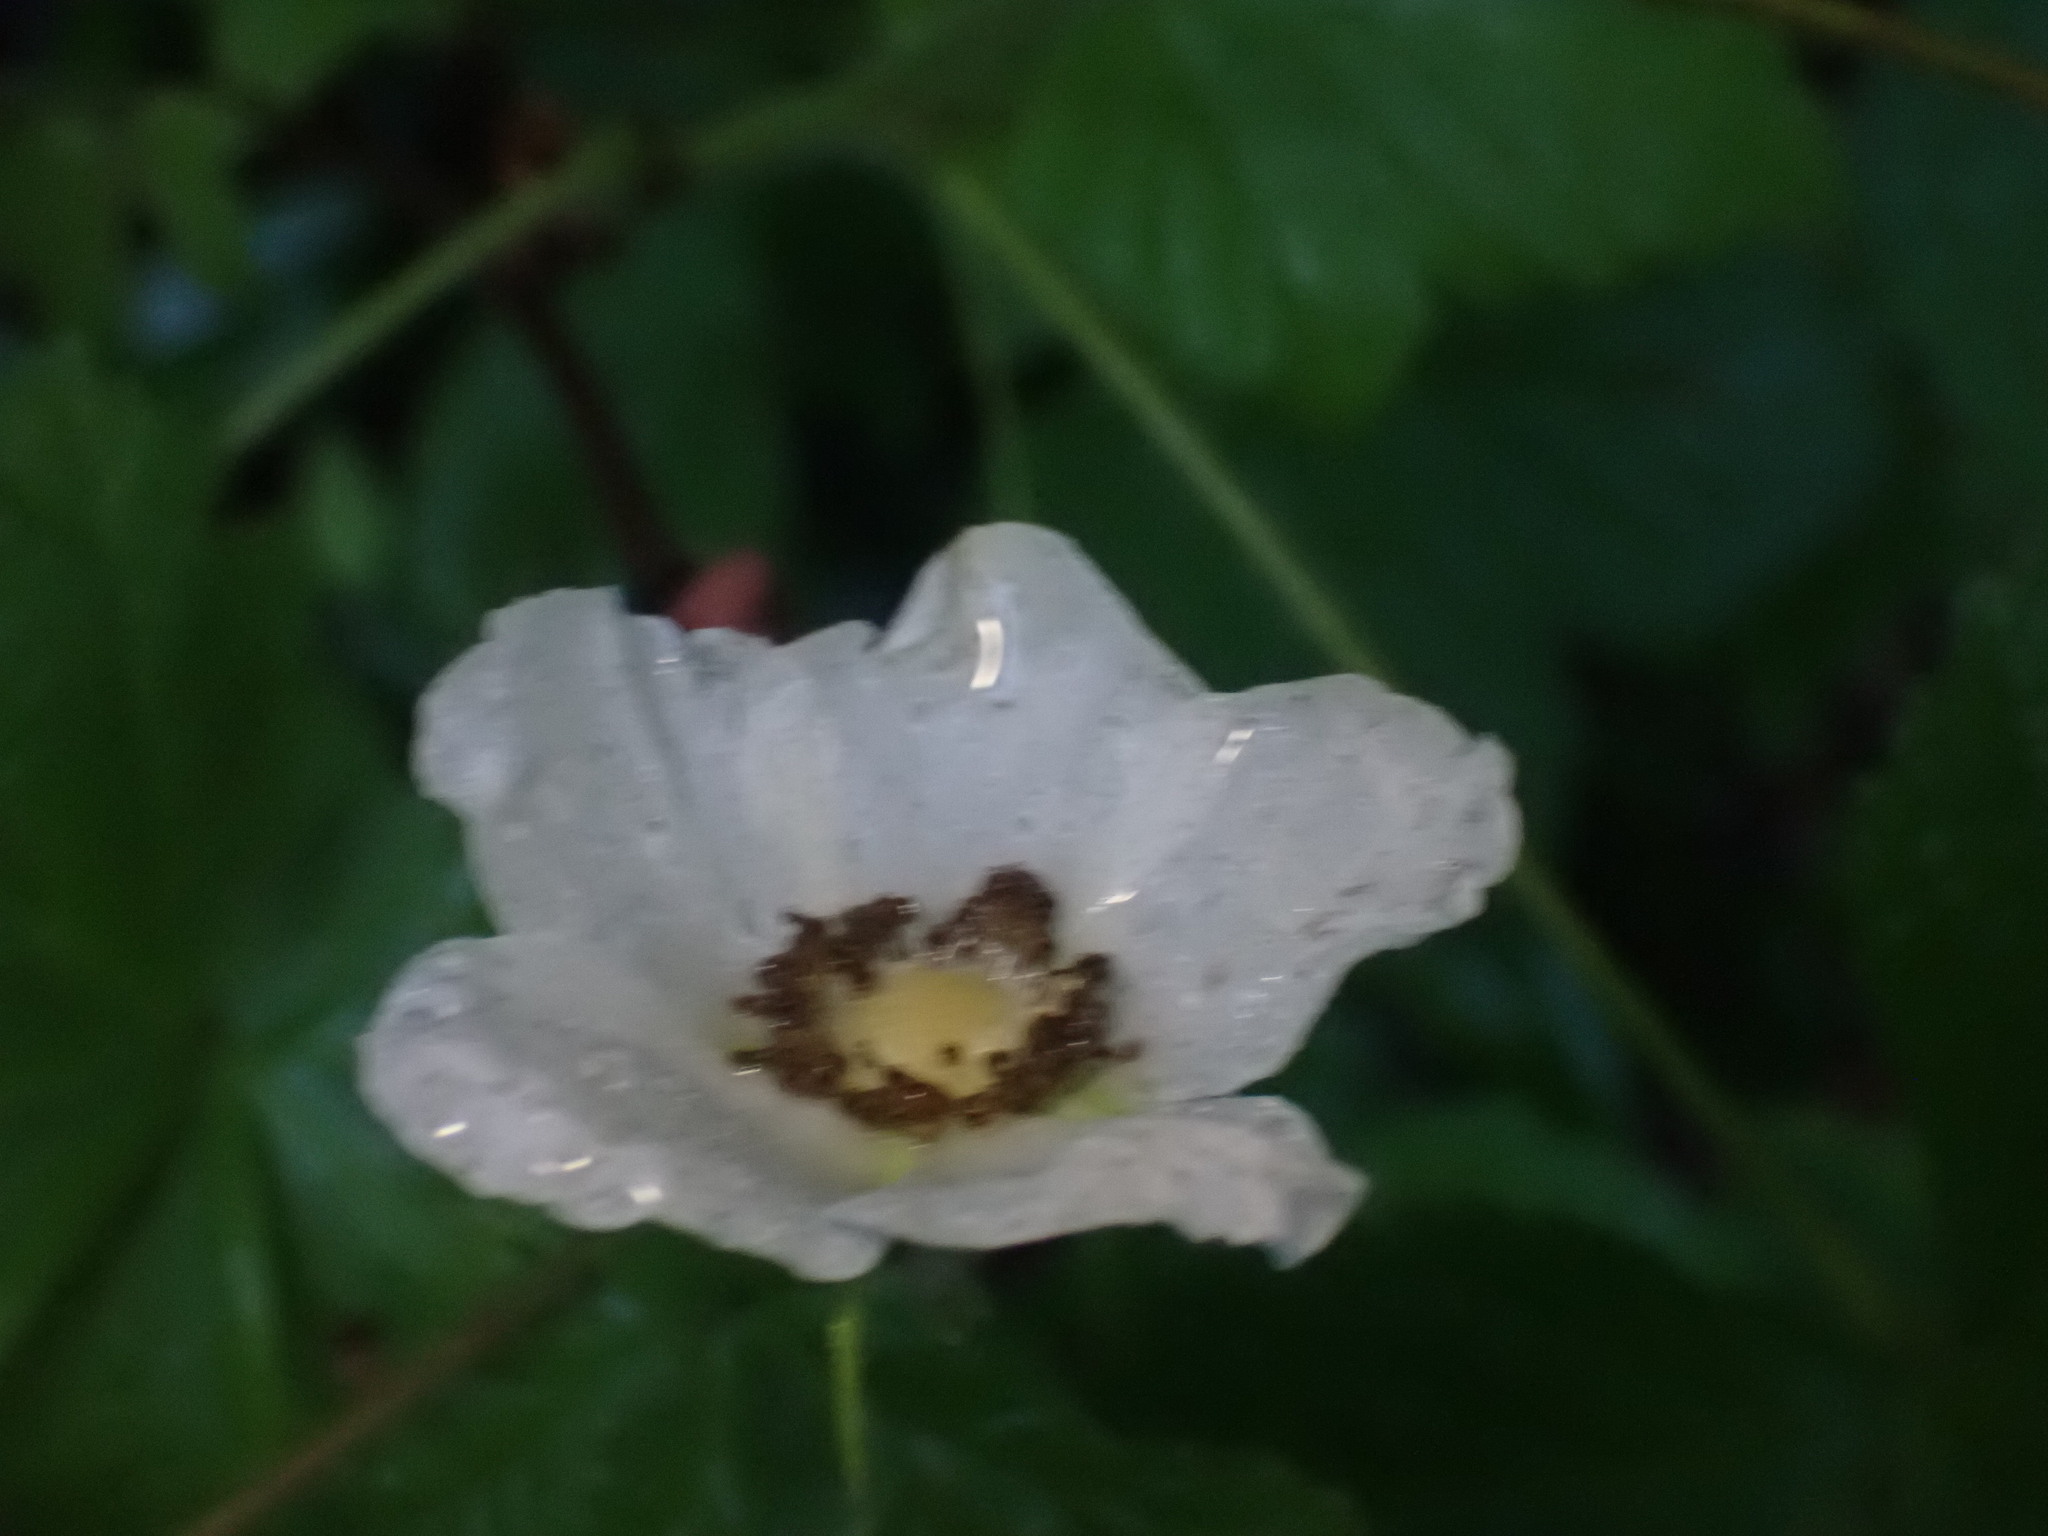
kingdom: Plantae
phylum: Tracheophyta
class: Magnoliopsida
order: Rosales
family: Rosaceae
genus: Rubus
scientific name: Rubus parviflorus
